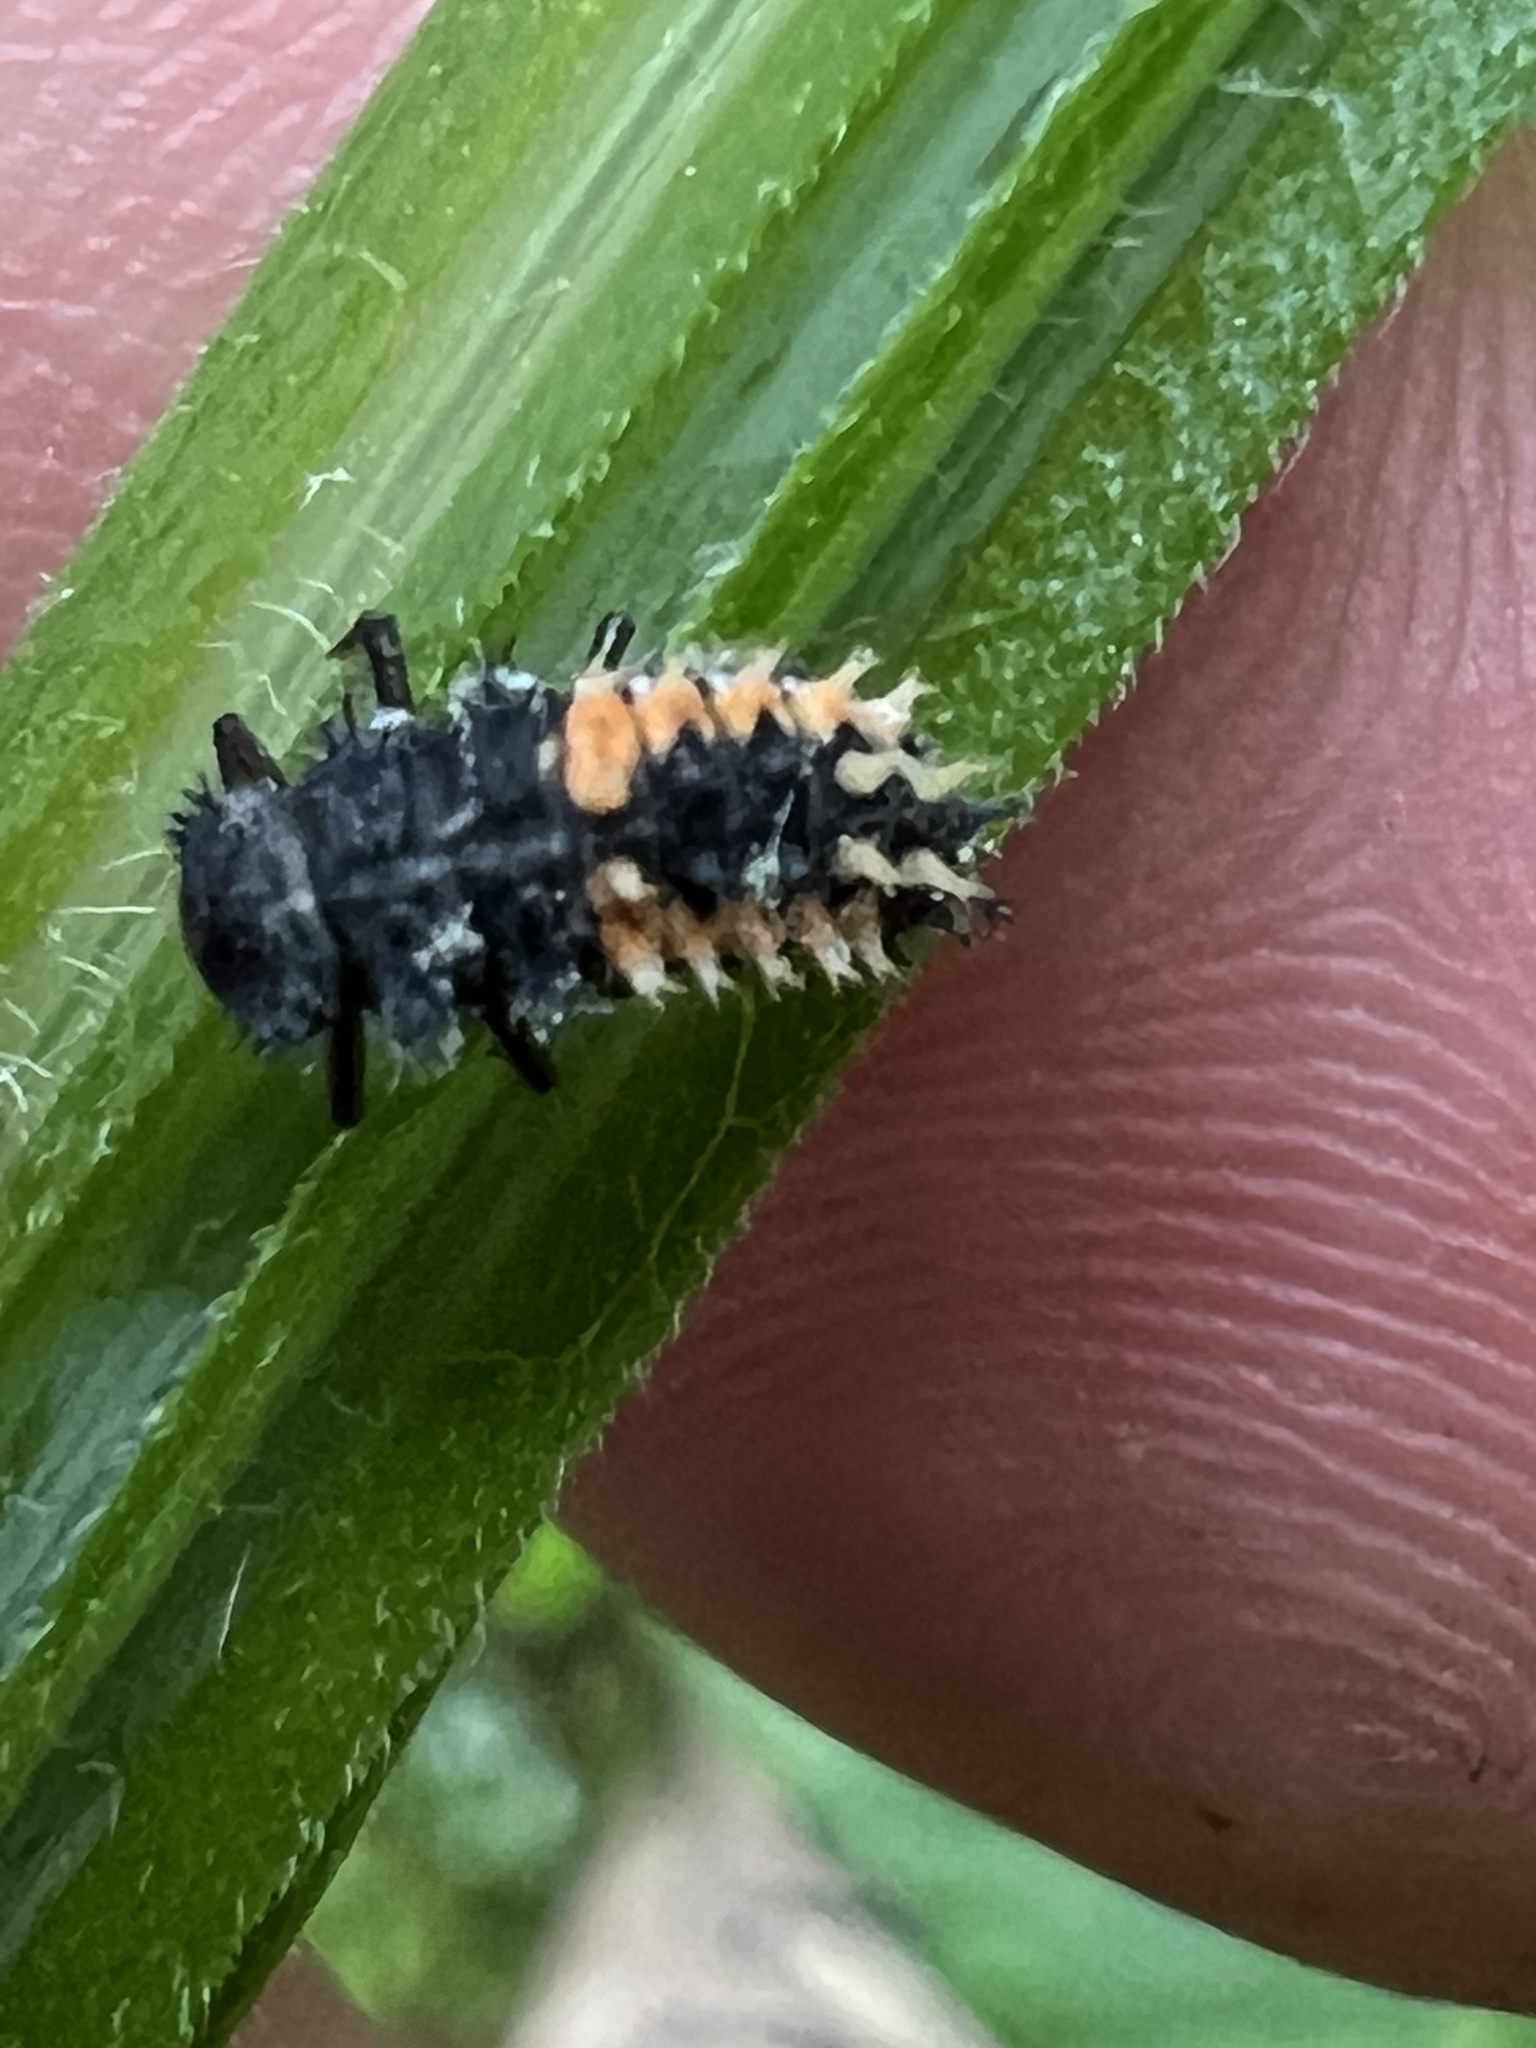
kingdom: Animalia
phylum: Arthropoda
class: Insecta
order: Coleoptera
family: Coccinellidae
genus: Harmonia
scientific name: Harmonia axyridis
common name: Harlequin ladybird
